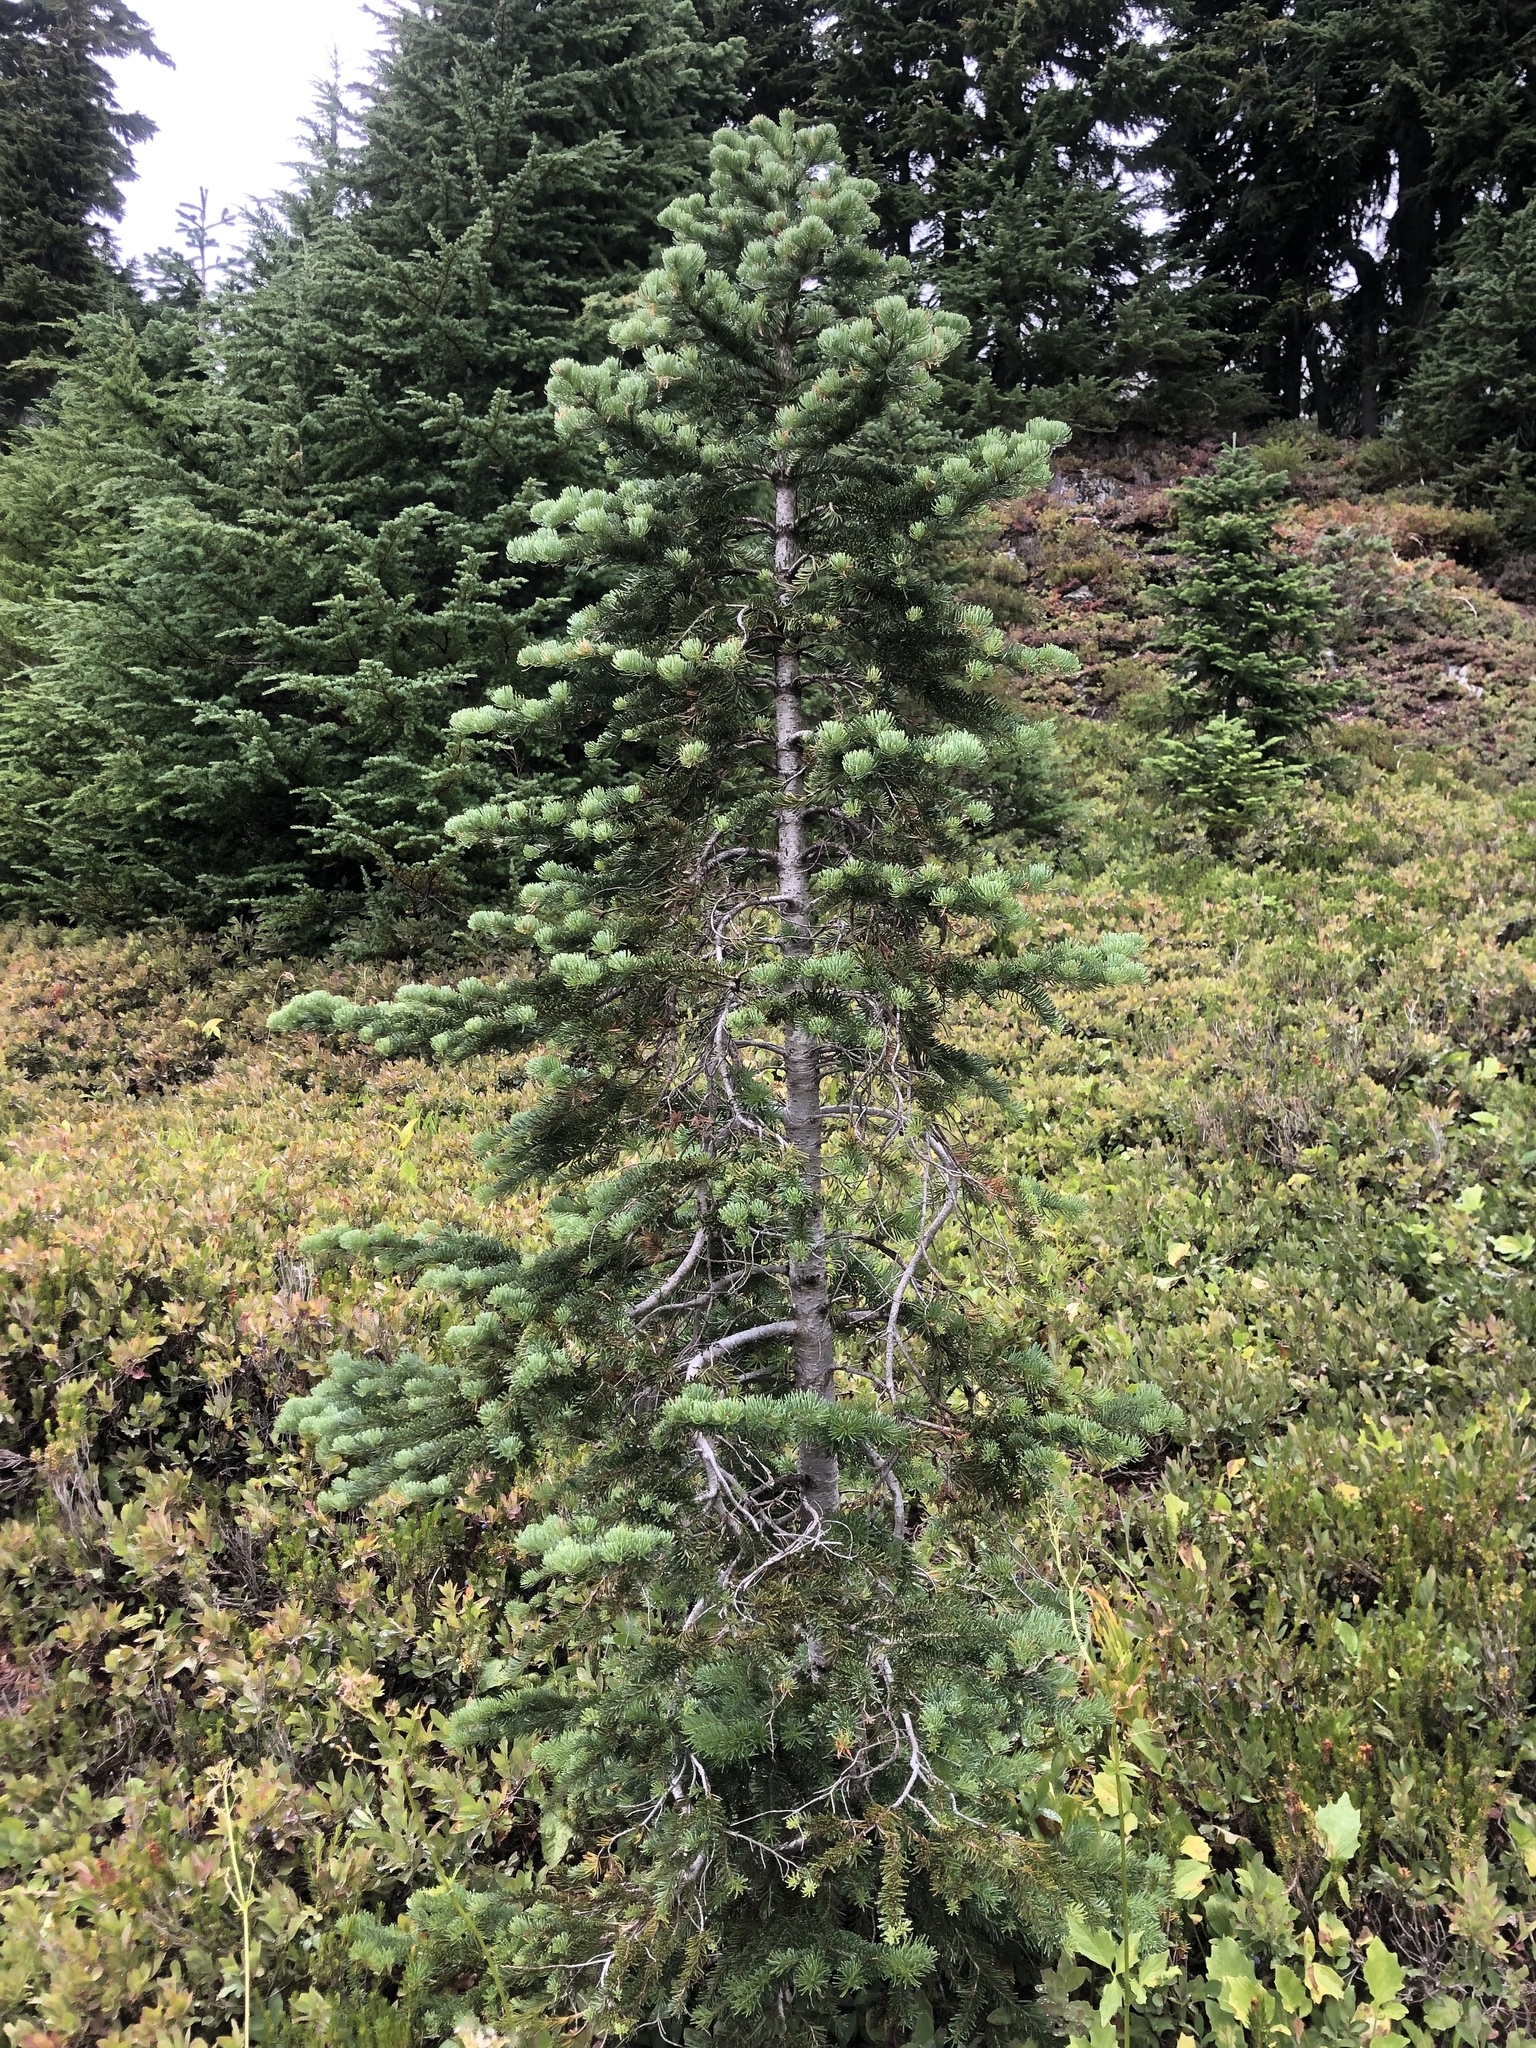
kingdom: Plantae
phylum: Tracheophyta
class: Pinopsida
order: Pinales
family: Pinaceae
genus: Abies
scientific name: Abies lasiocarpa
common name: Subalpine fir
